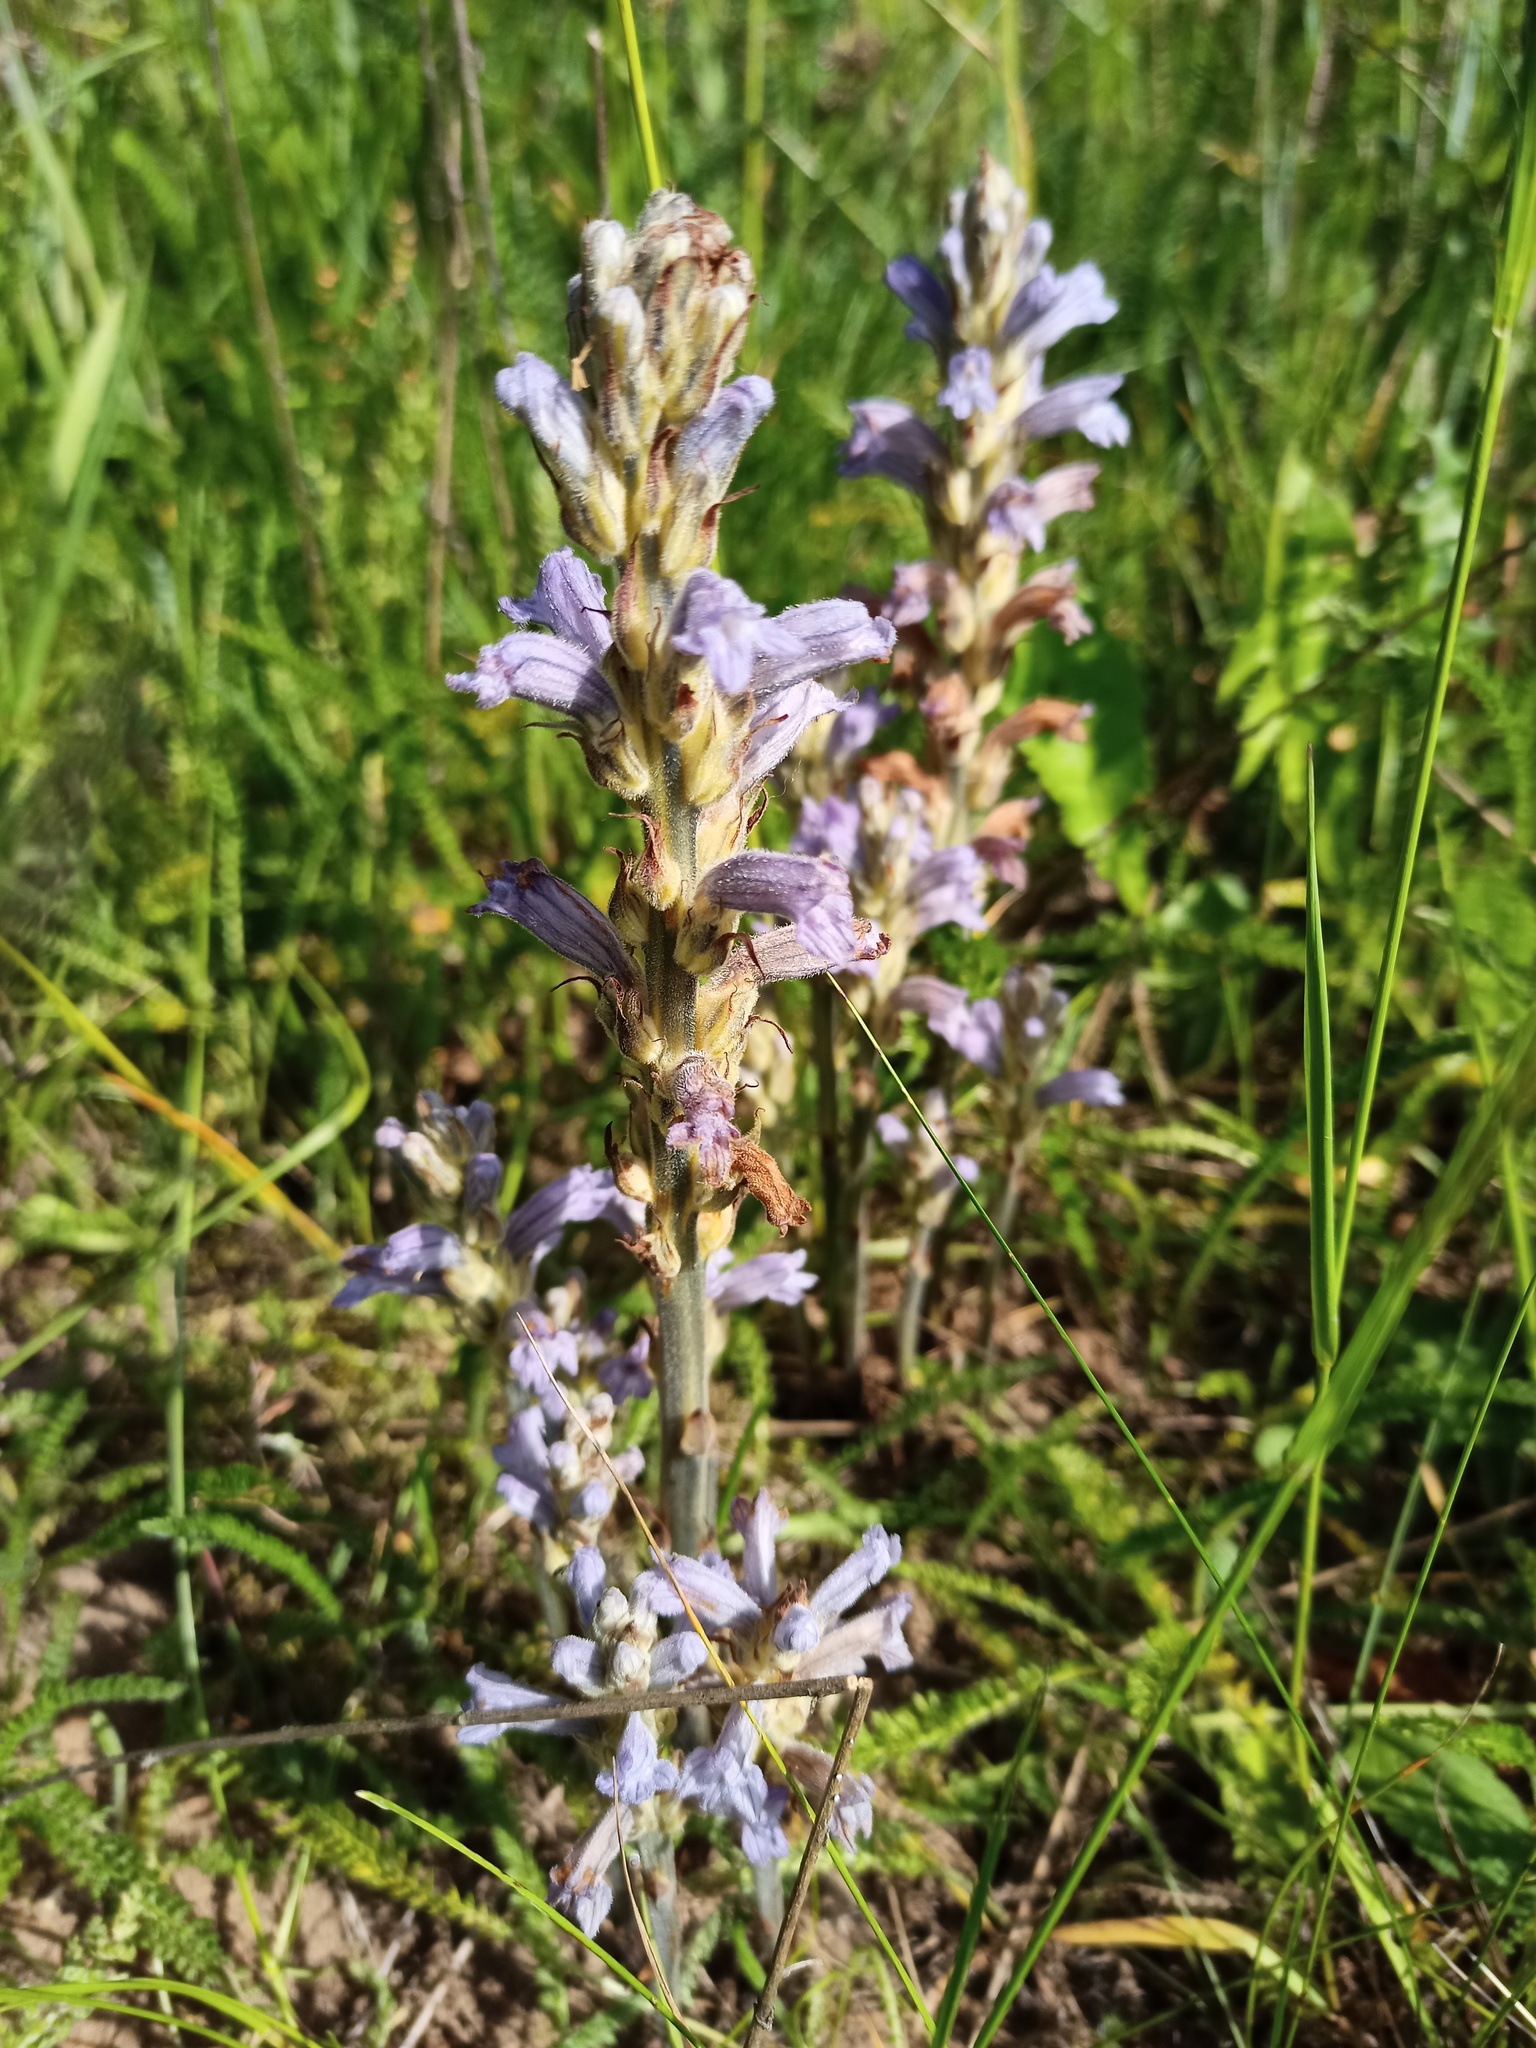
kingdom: Plantae
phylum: Tracheophyta
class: Magnoliopsida
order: Lamiales
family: Orobanchaceae
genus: Phelipanche
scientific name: Phelipanche purpurea
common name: Purple broomrape
